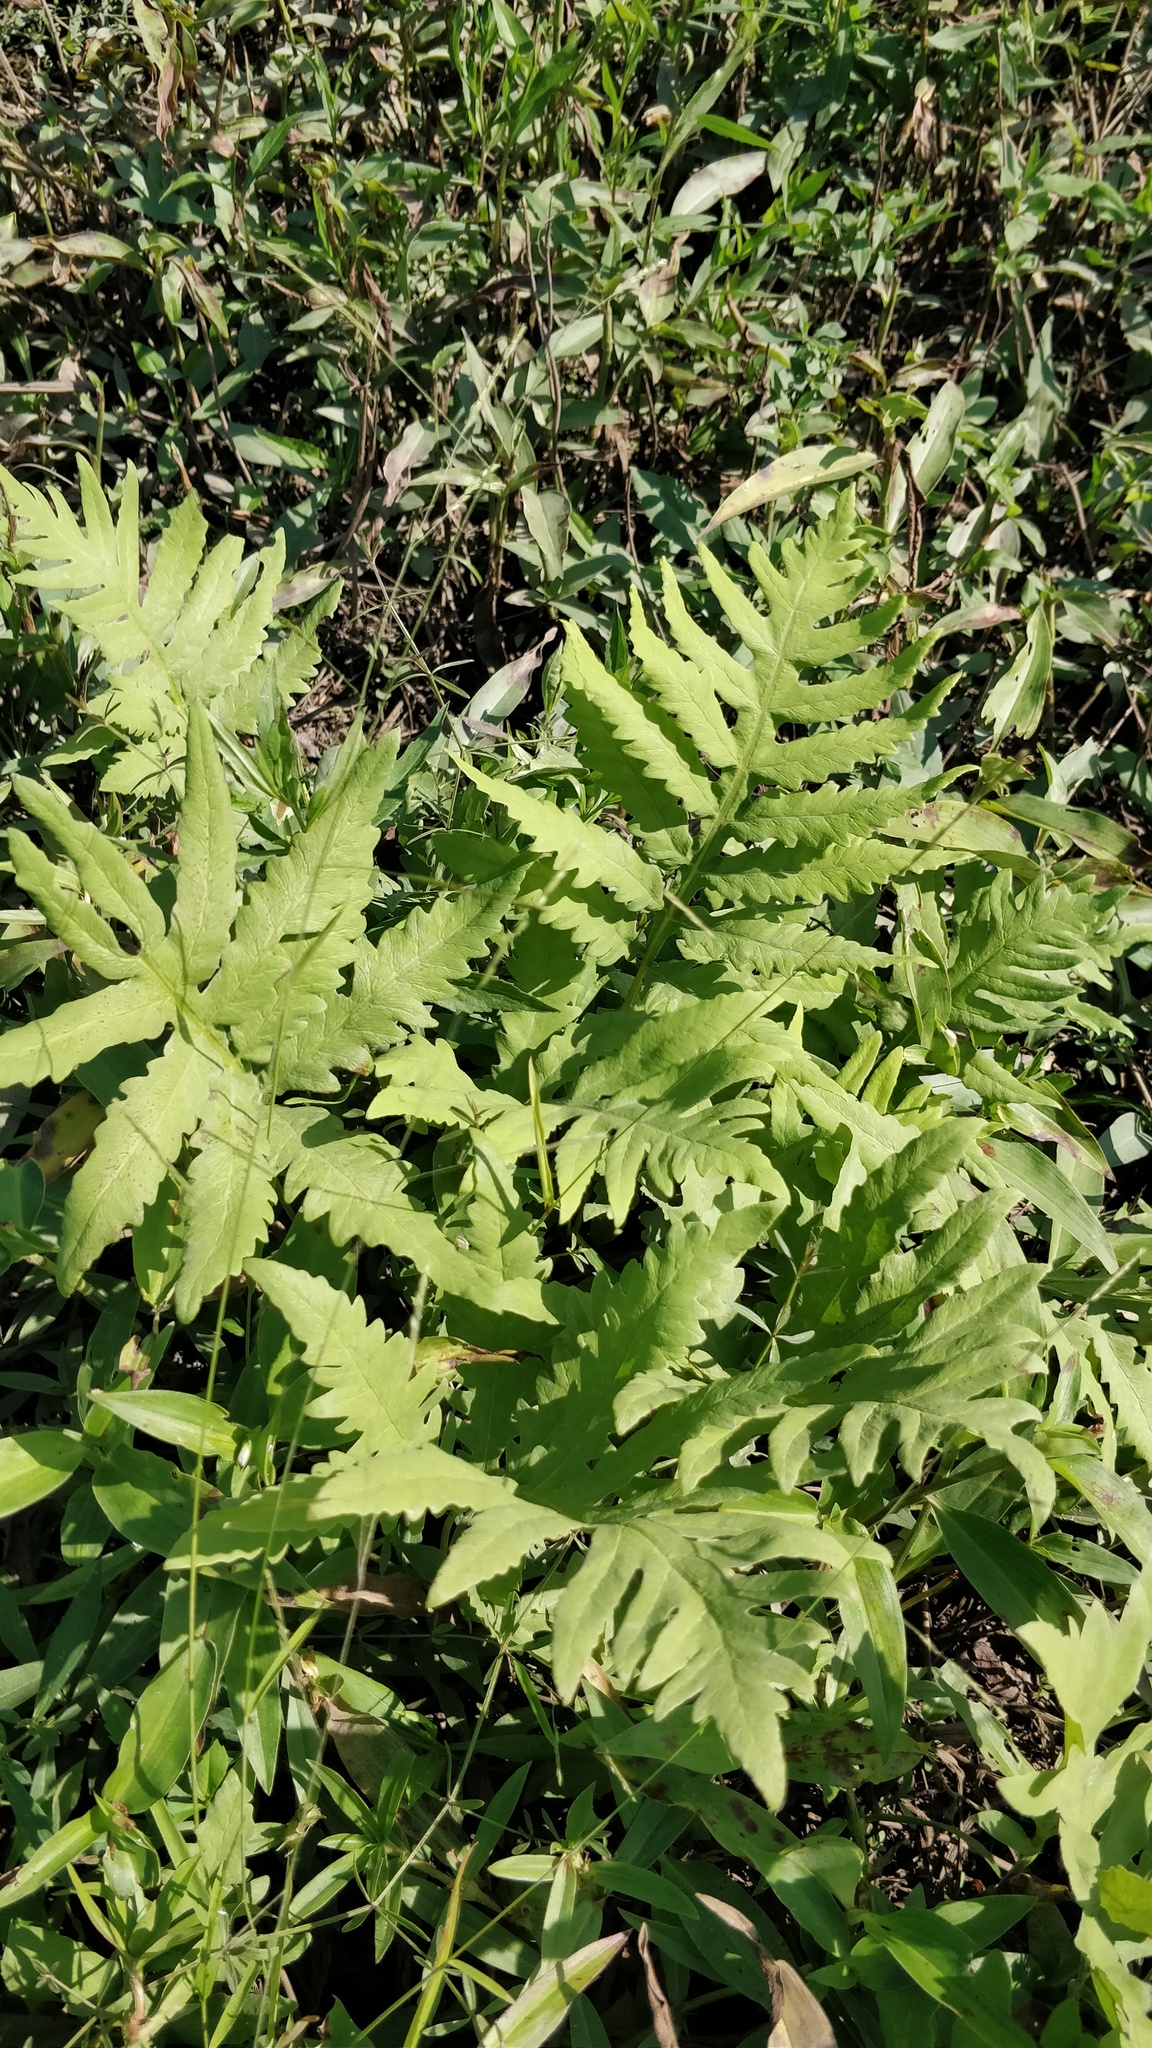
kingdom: Plantae
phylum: Tracheophyta
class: Polypodiopsida
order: Polypodiales
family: Onocleaceae
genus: Onoclea
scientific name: Onoclea sensibilis
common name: Sensitive fern
